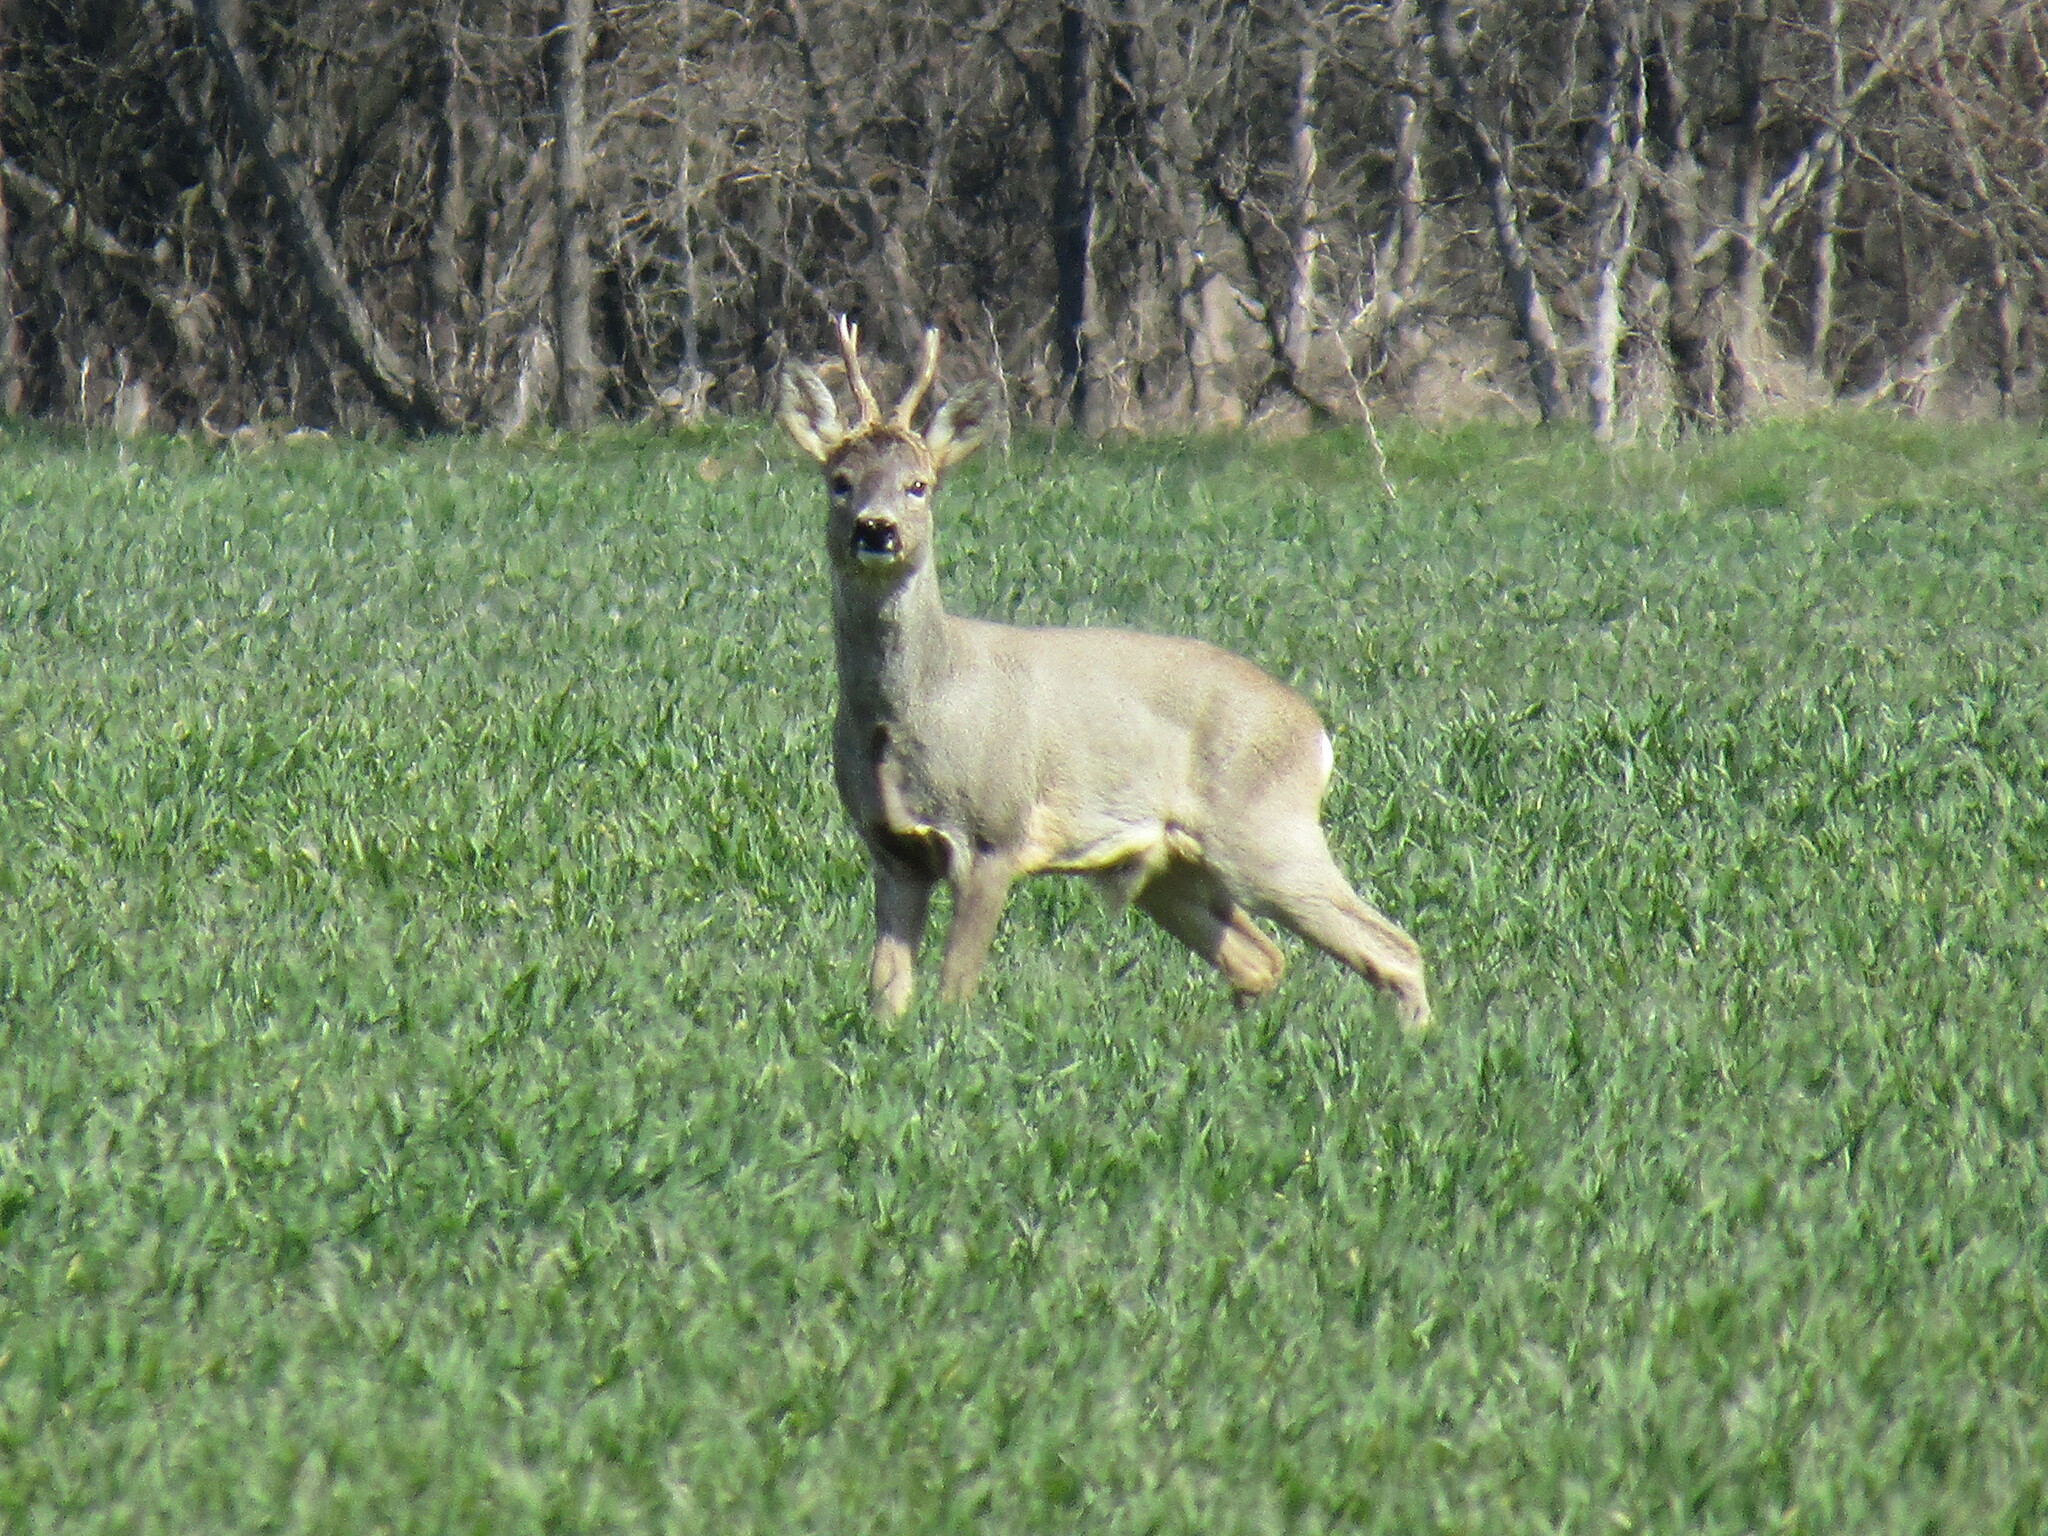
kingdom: Animalia
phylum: Chordata
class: Mammalia
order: Artiodactyla
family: Cervidae
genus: Capreolus
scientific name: Capreolus capreolus
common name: Western roe deer
